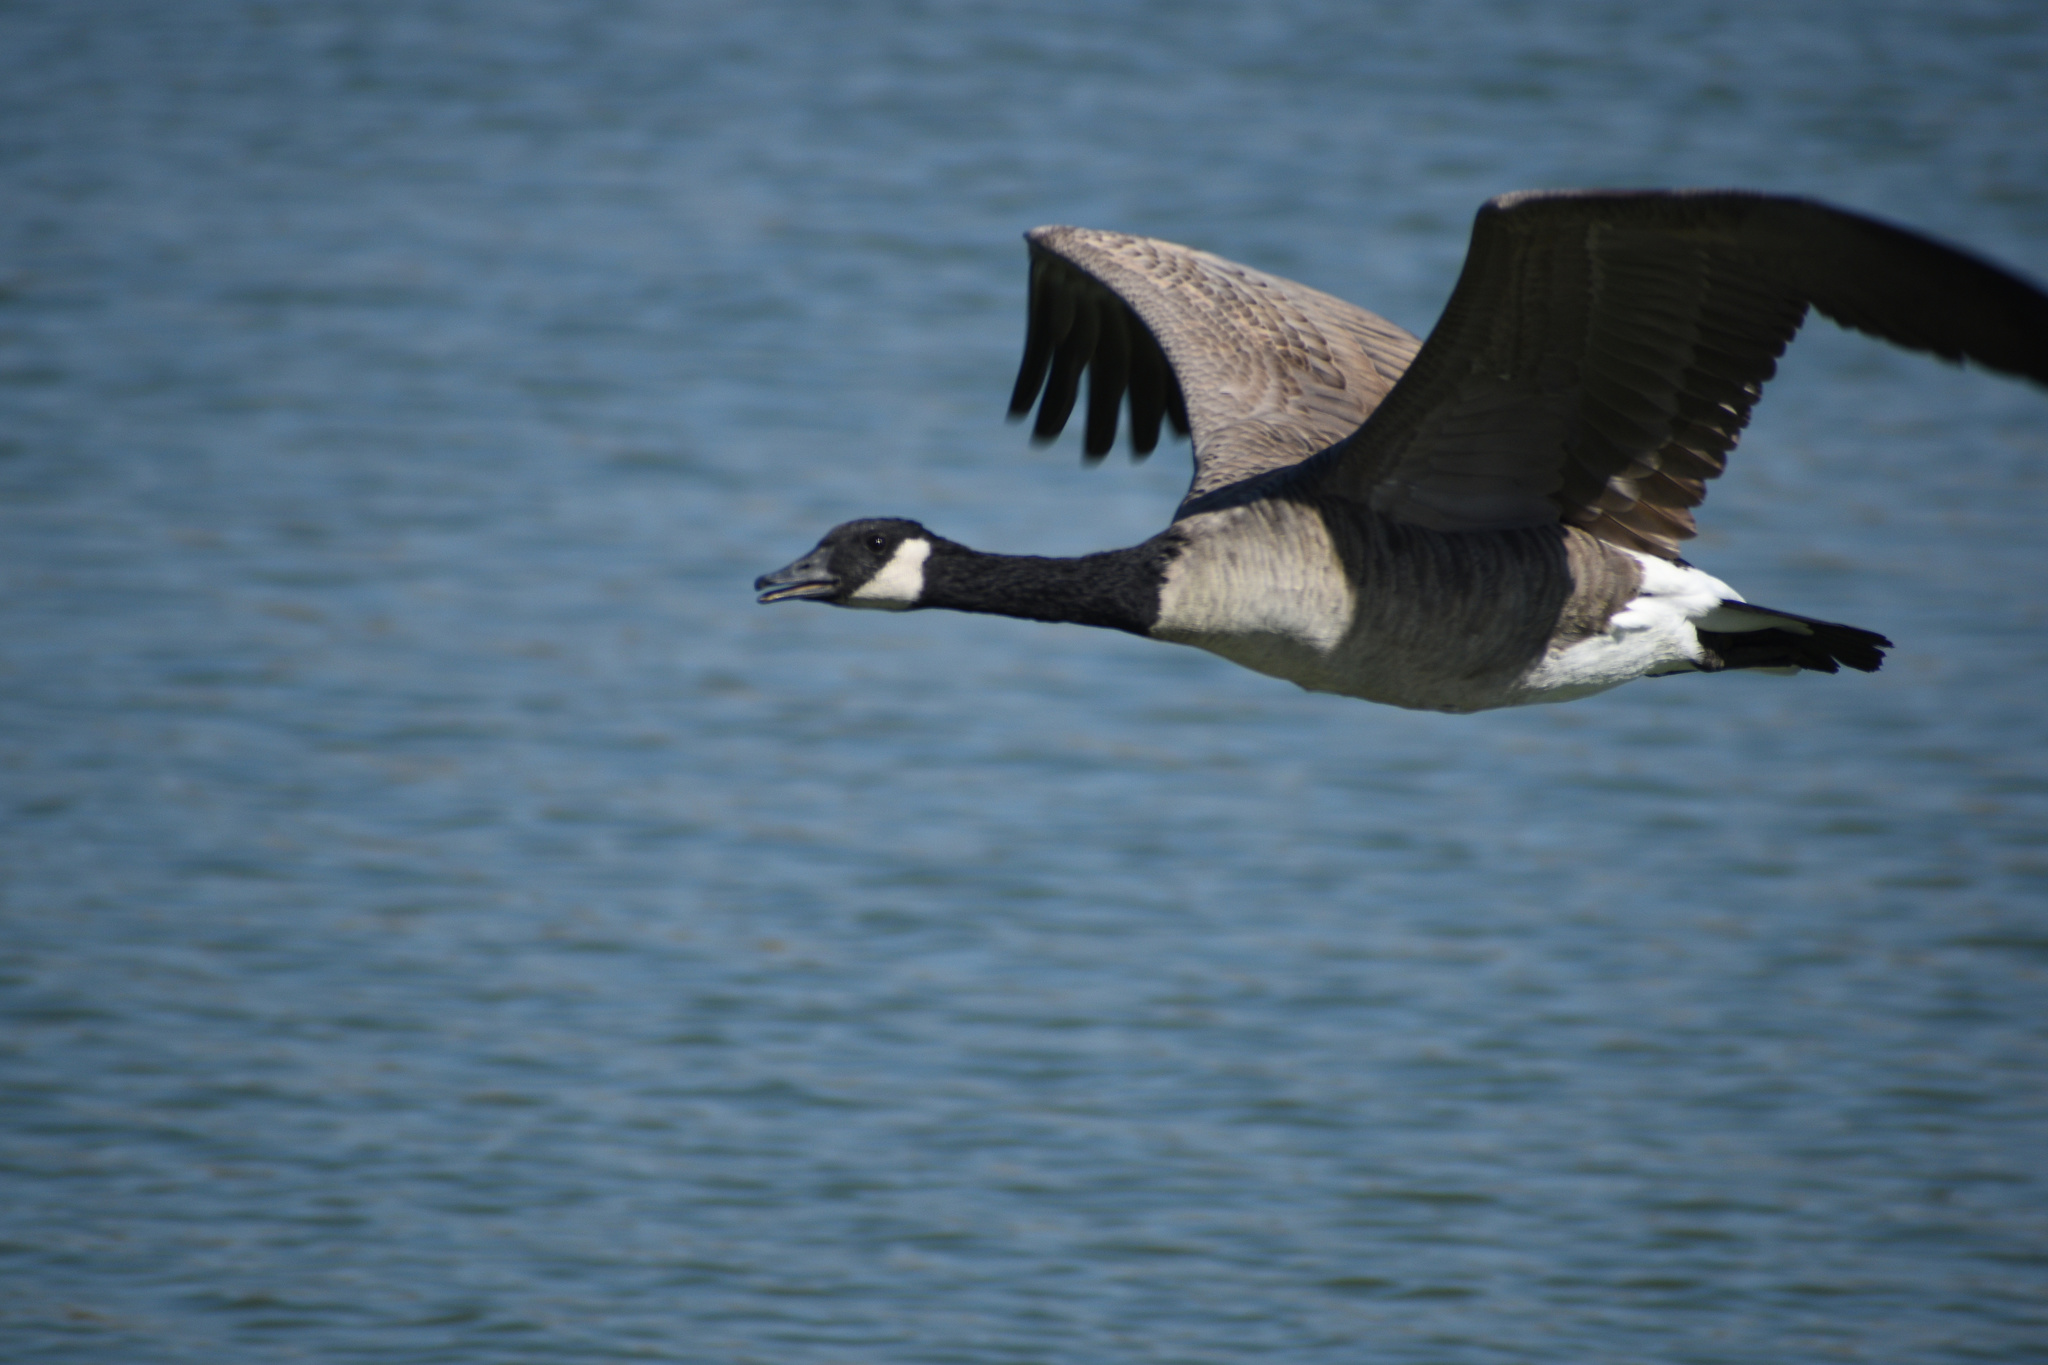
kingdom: Animalia
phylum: Chordata
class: Aves
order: Anseriformes
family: Anatidae
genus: Branta
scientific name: Branta canadensis
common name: Canada goose
